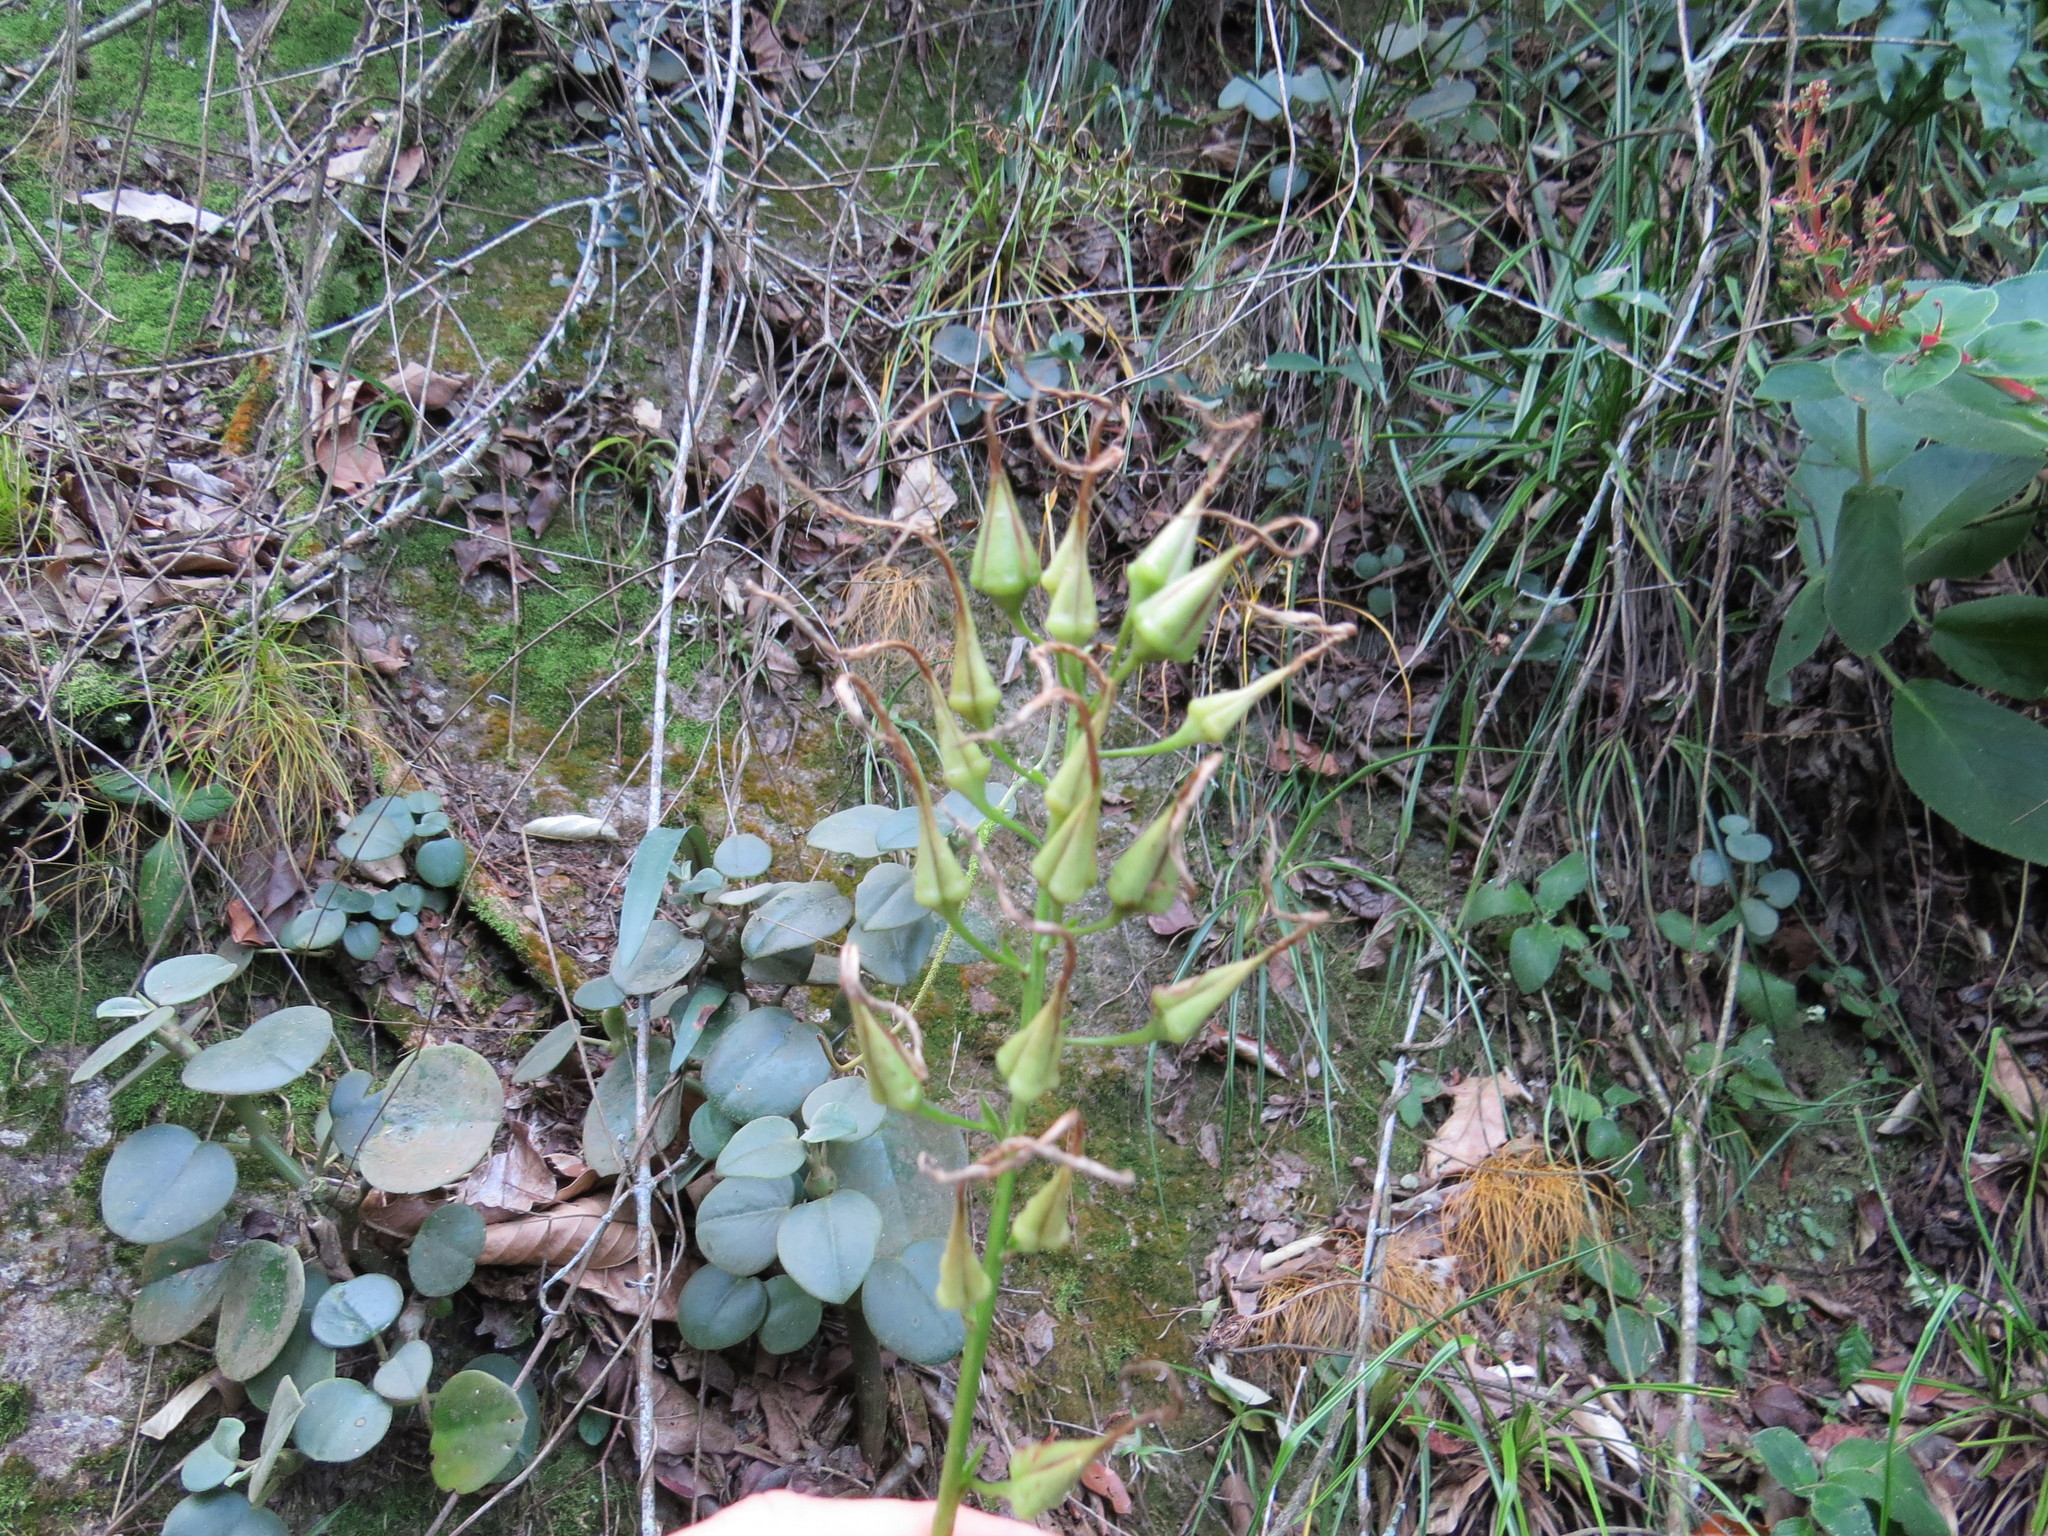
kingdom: Plantae
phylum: Tracheophyta
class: Liliopsida
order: Poales
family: Bromeliaceae
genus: Pitcairnia
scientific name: Pitcairnia albiflos
